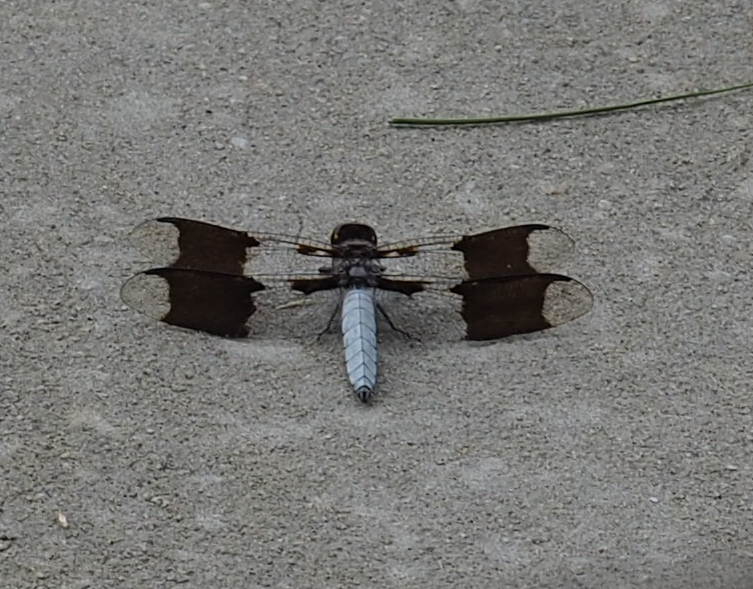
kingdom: Animalia
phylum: Arthropoda
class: Insecta
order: Odonata
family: Libellulidae
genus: Plathemis
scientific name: Plathemis lydia
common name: Common whitetail
